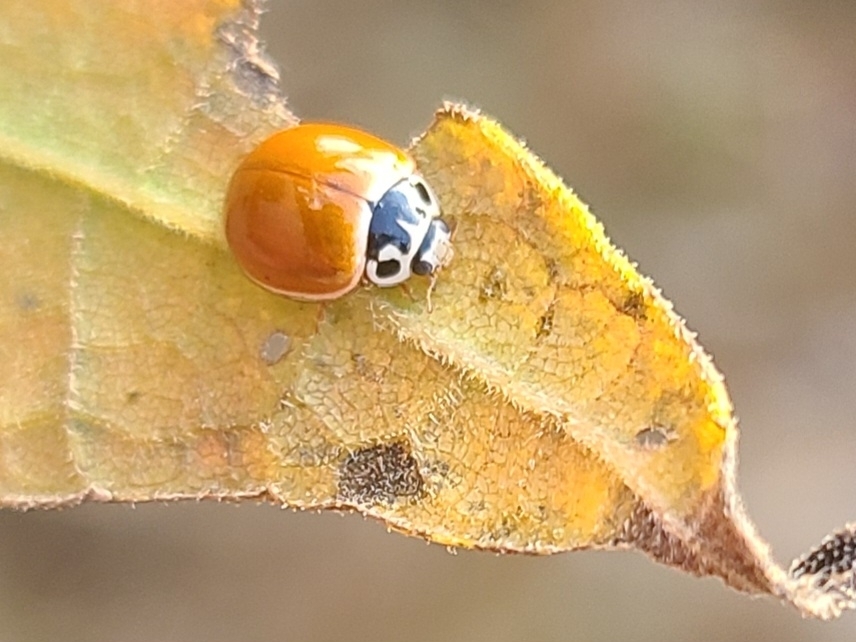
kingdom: Animalia
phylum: Arthropoda
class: Insecta
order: Coleoptera
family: Coccinellidae
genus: Cycloneda
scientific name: Cycloneda munda
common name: Polished lady beetle
